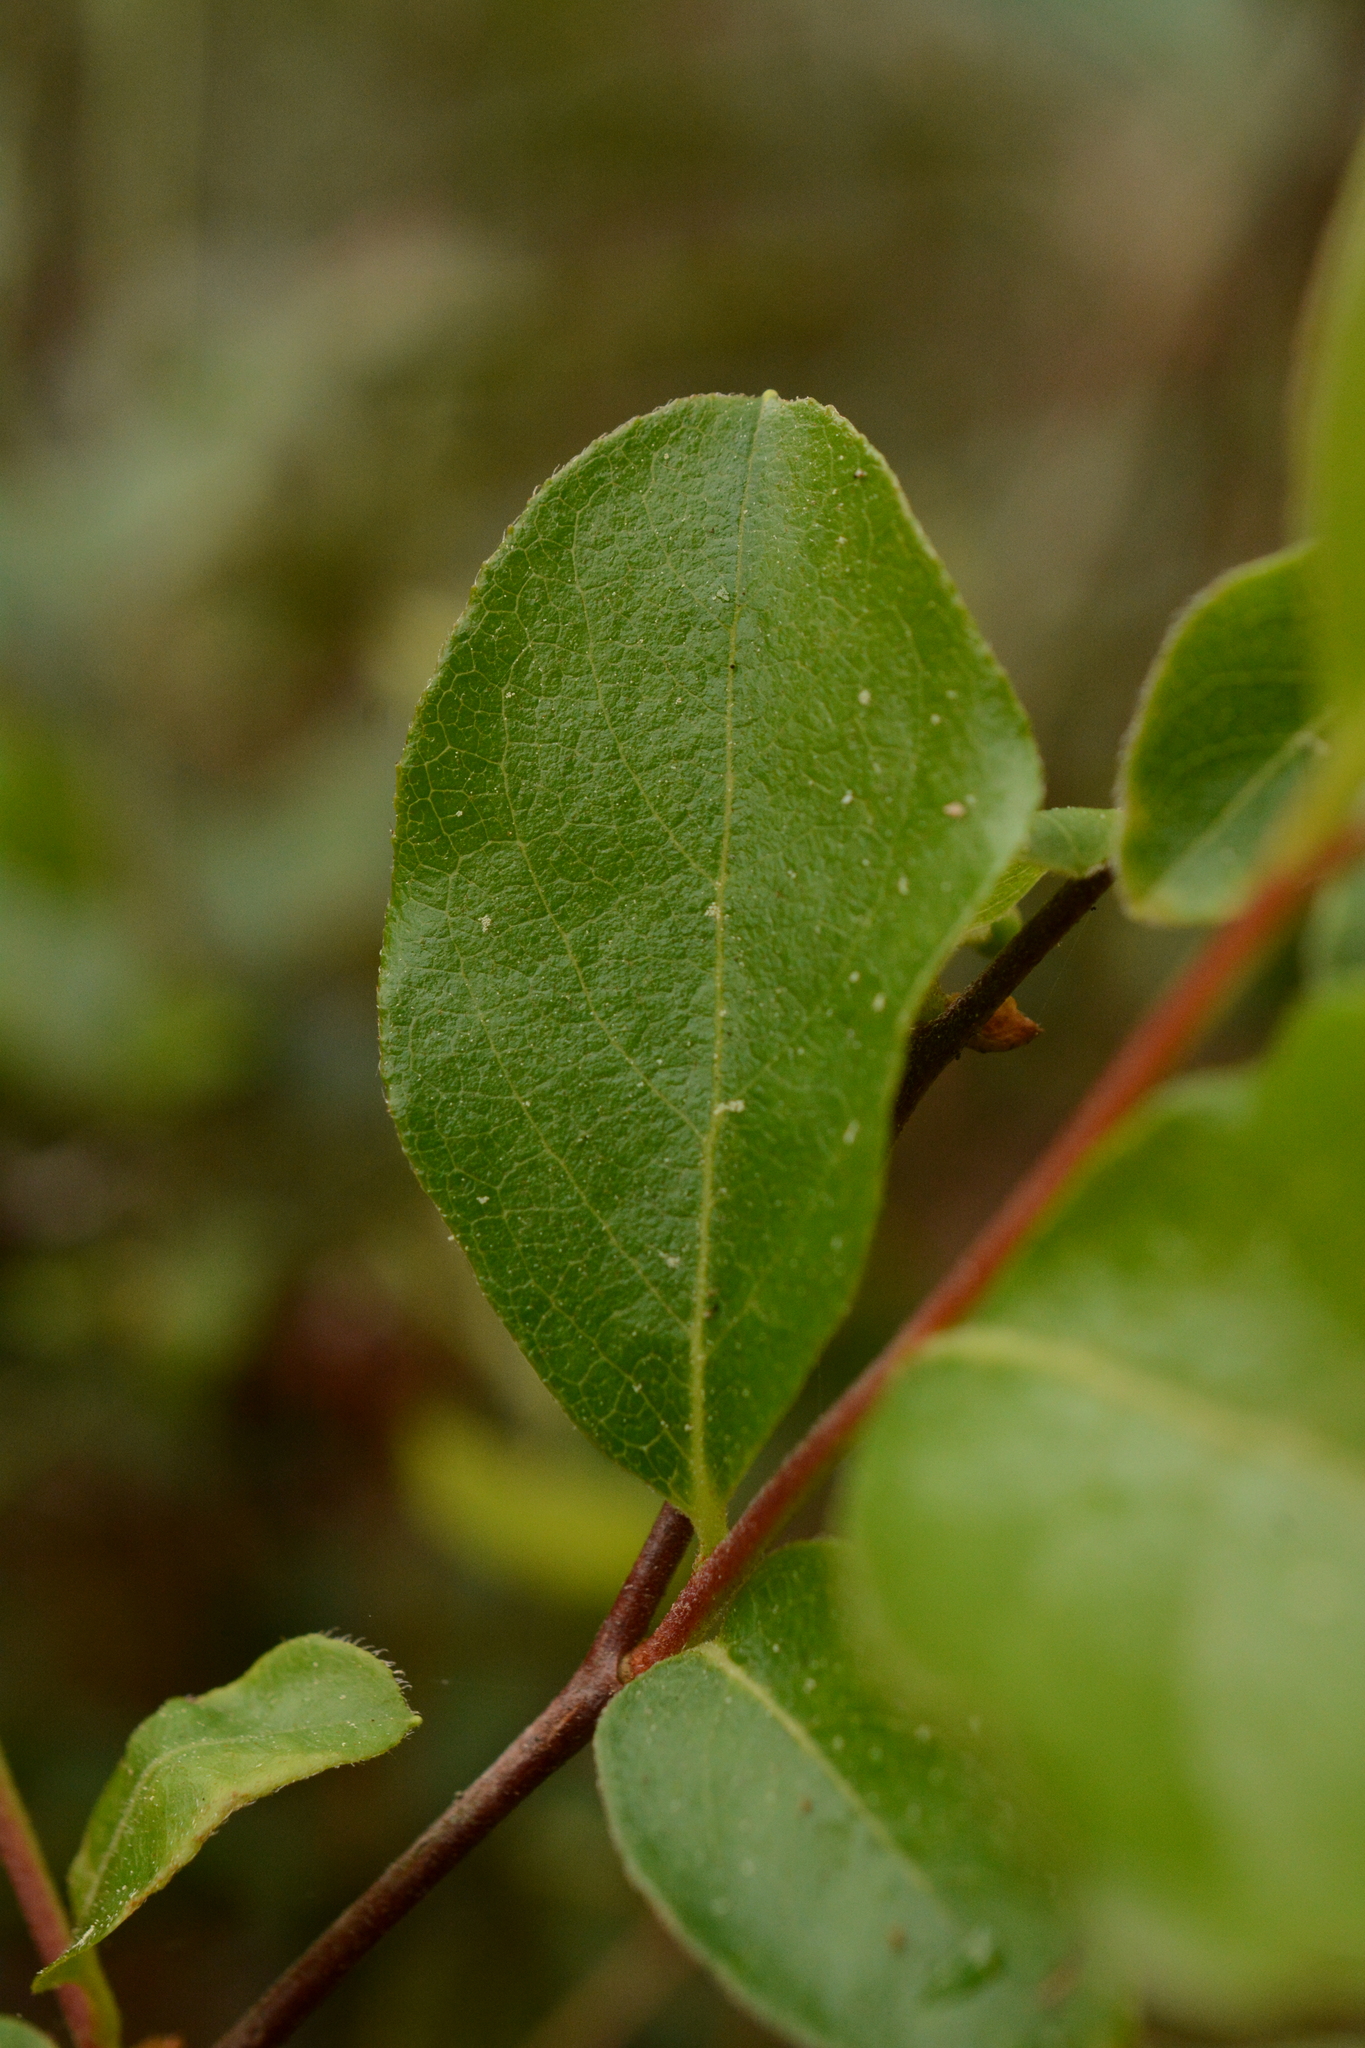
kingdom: Plantae
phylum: Tracheophyta
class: Magnoliopsida
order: Ericales
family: Ericaceae
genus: Lyonia
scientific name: Lyonia ligustrina
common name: Maleberry
